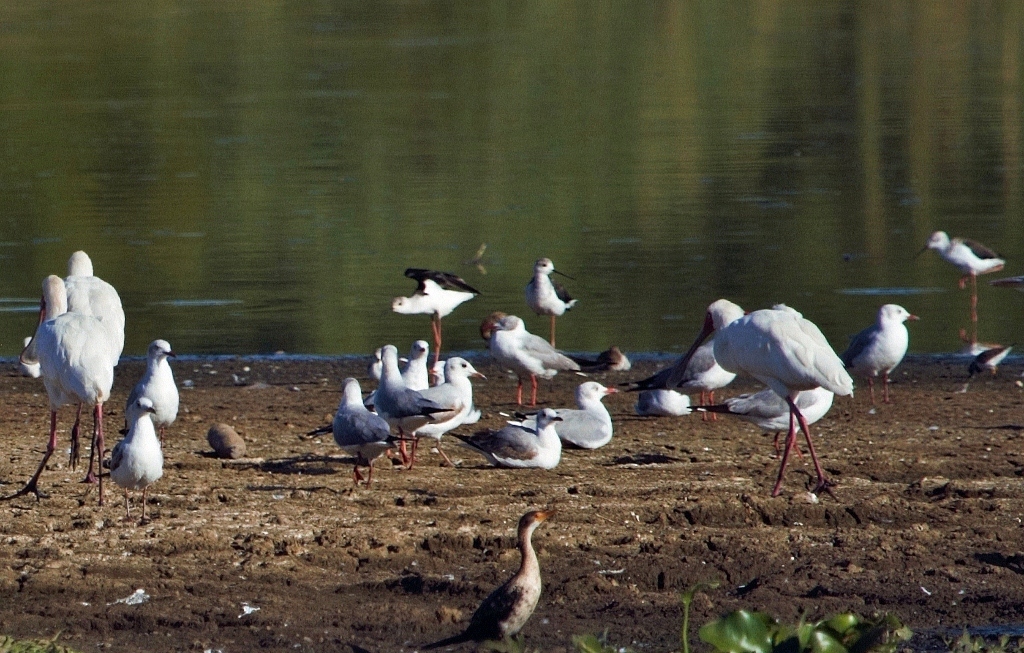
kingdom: Animalia
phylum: Chordata
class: Aves
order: Charadriiformes
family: Laridae
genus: Chroicocephalus
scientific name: Chroicocephalus cirrocephalus
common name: Grey-headed gull
